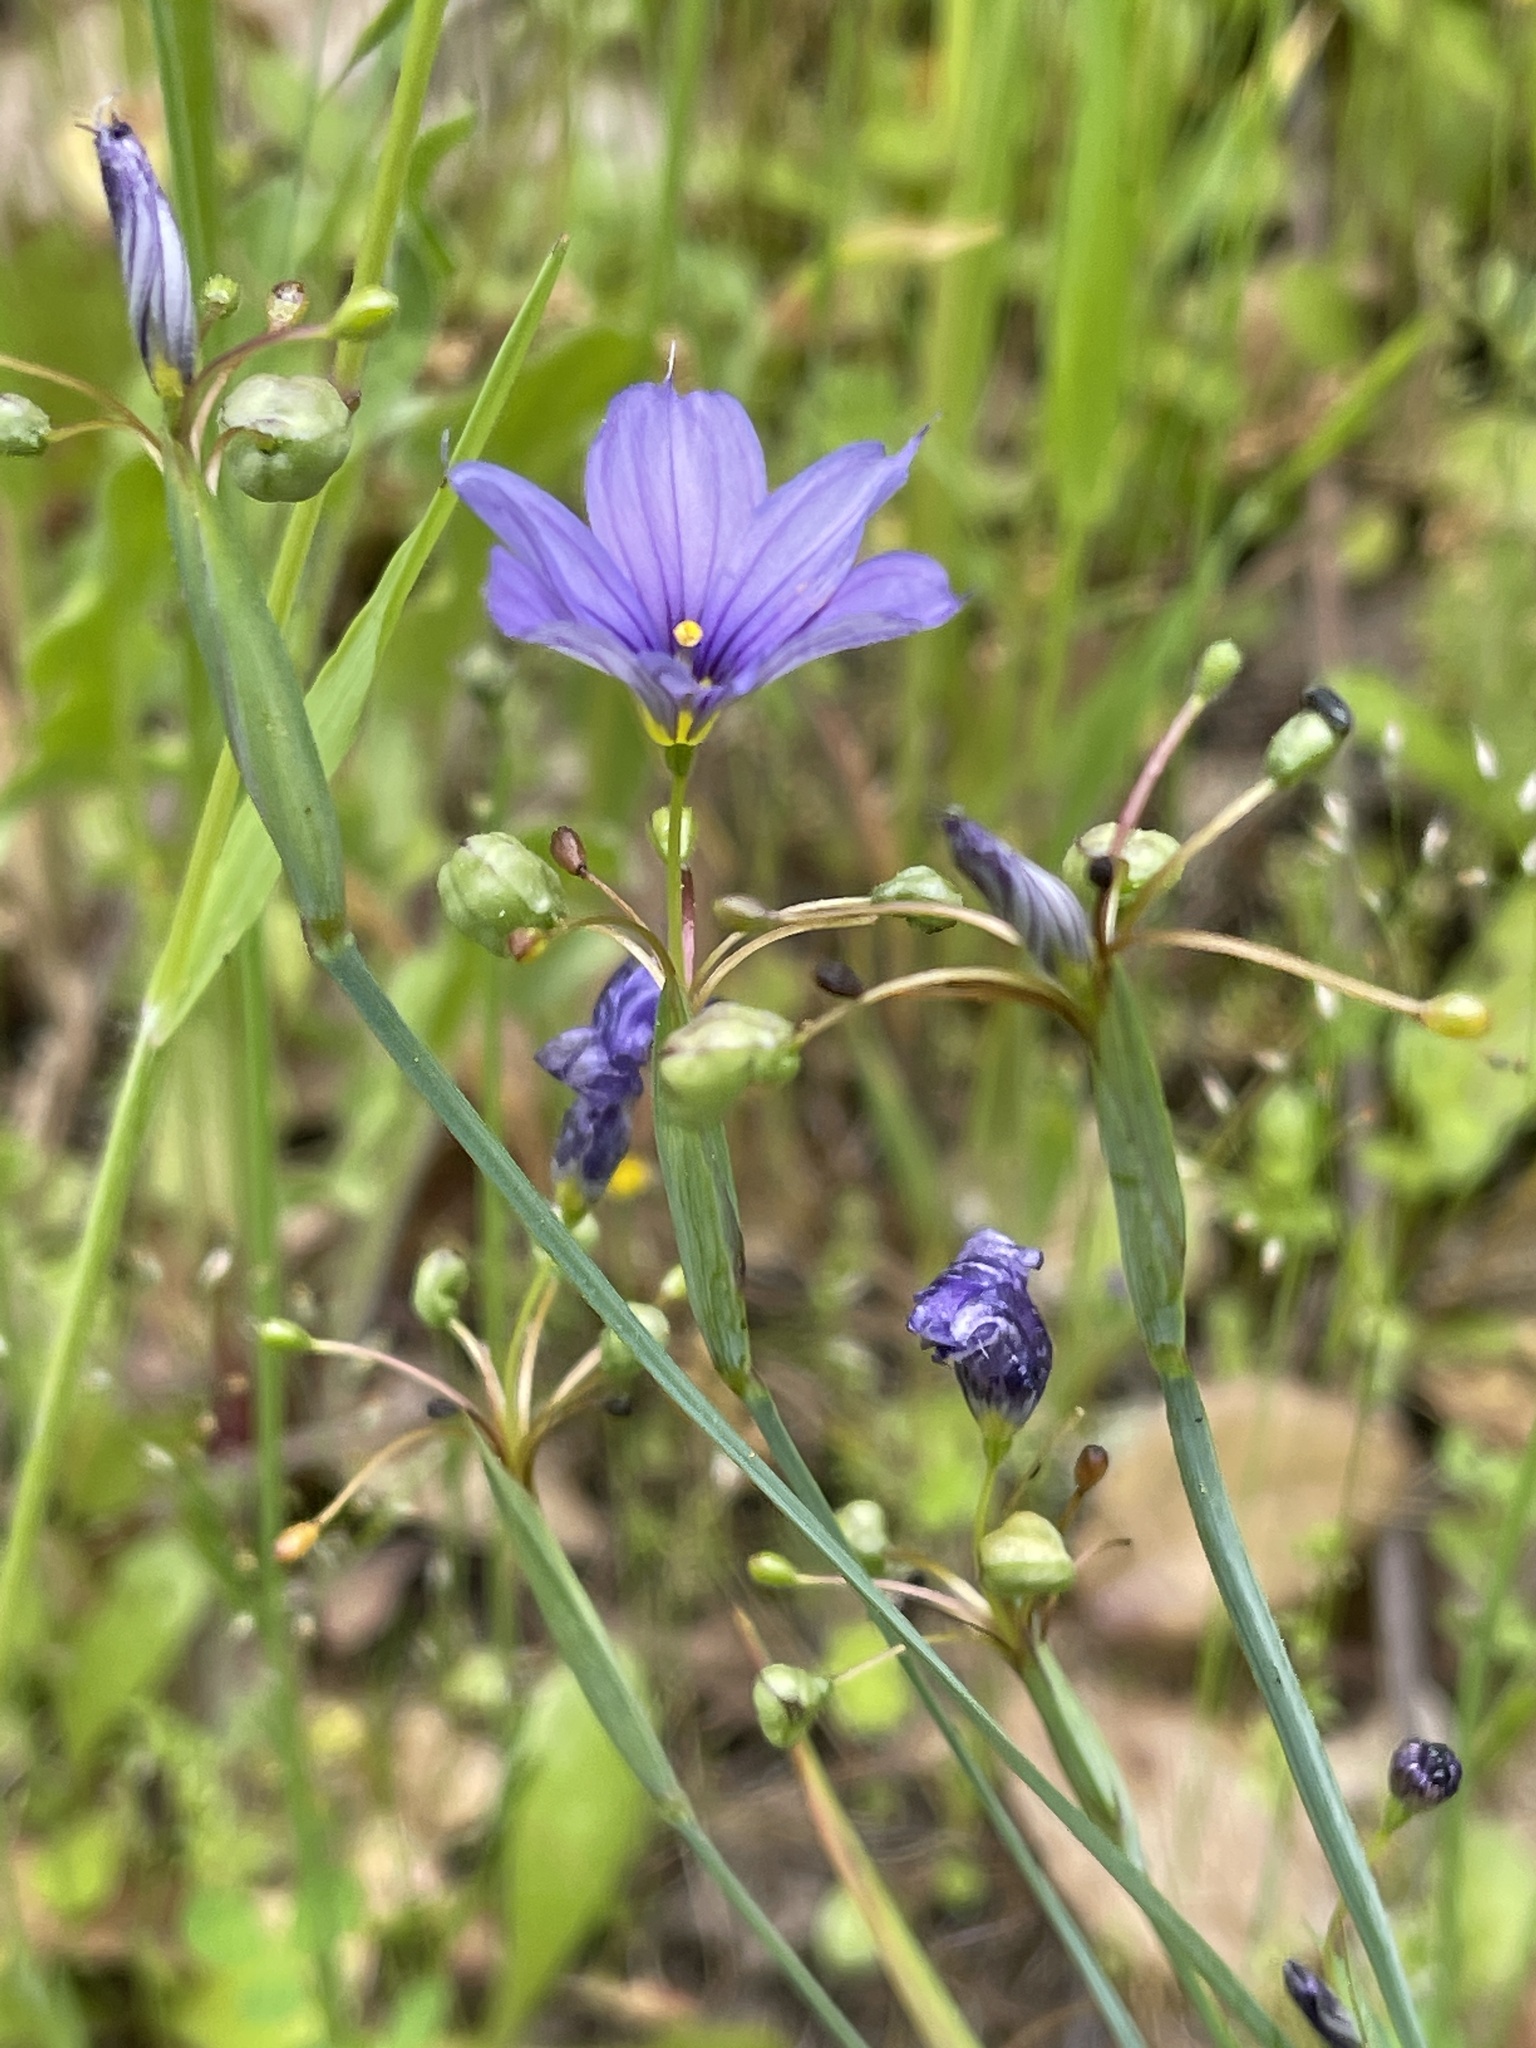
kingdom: Plantae
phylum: Tracheophyta
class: Liliopsida
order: Asparagales
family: Iridaceae
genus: Sisyrinchium
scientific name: Sisyrinchium bellum
